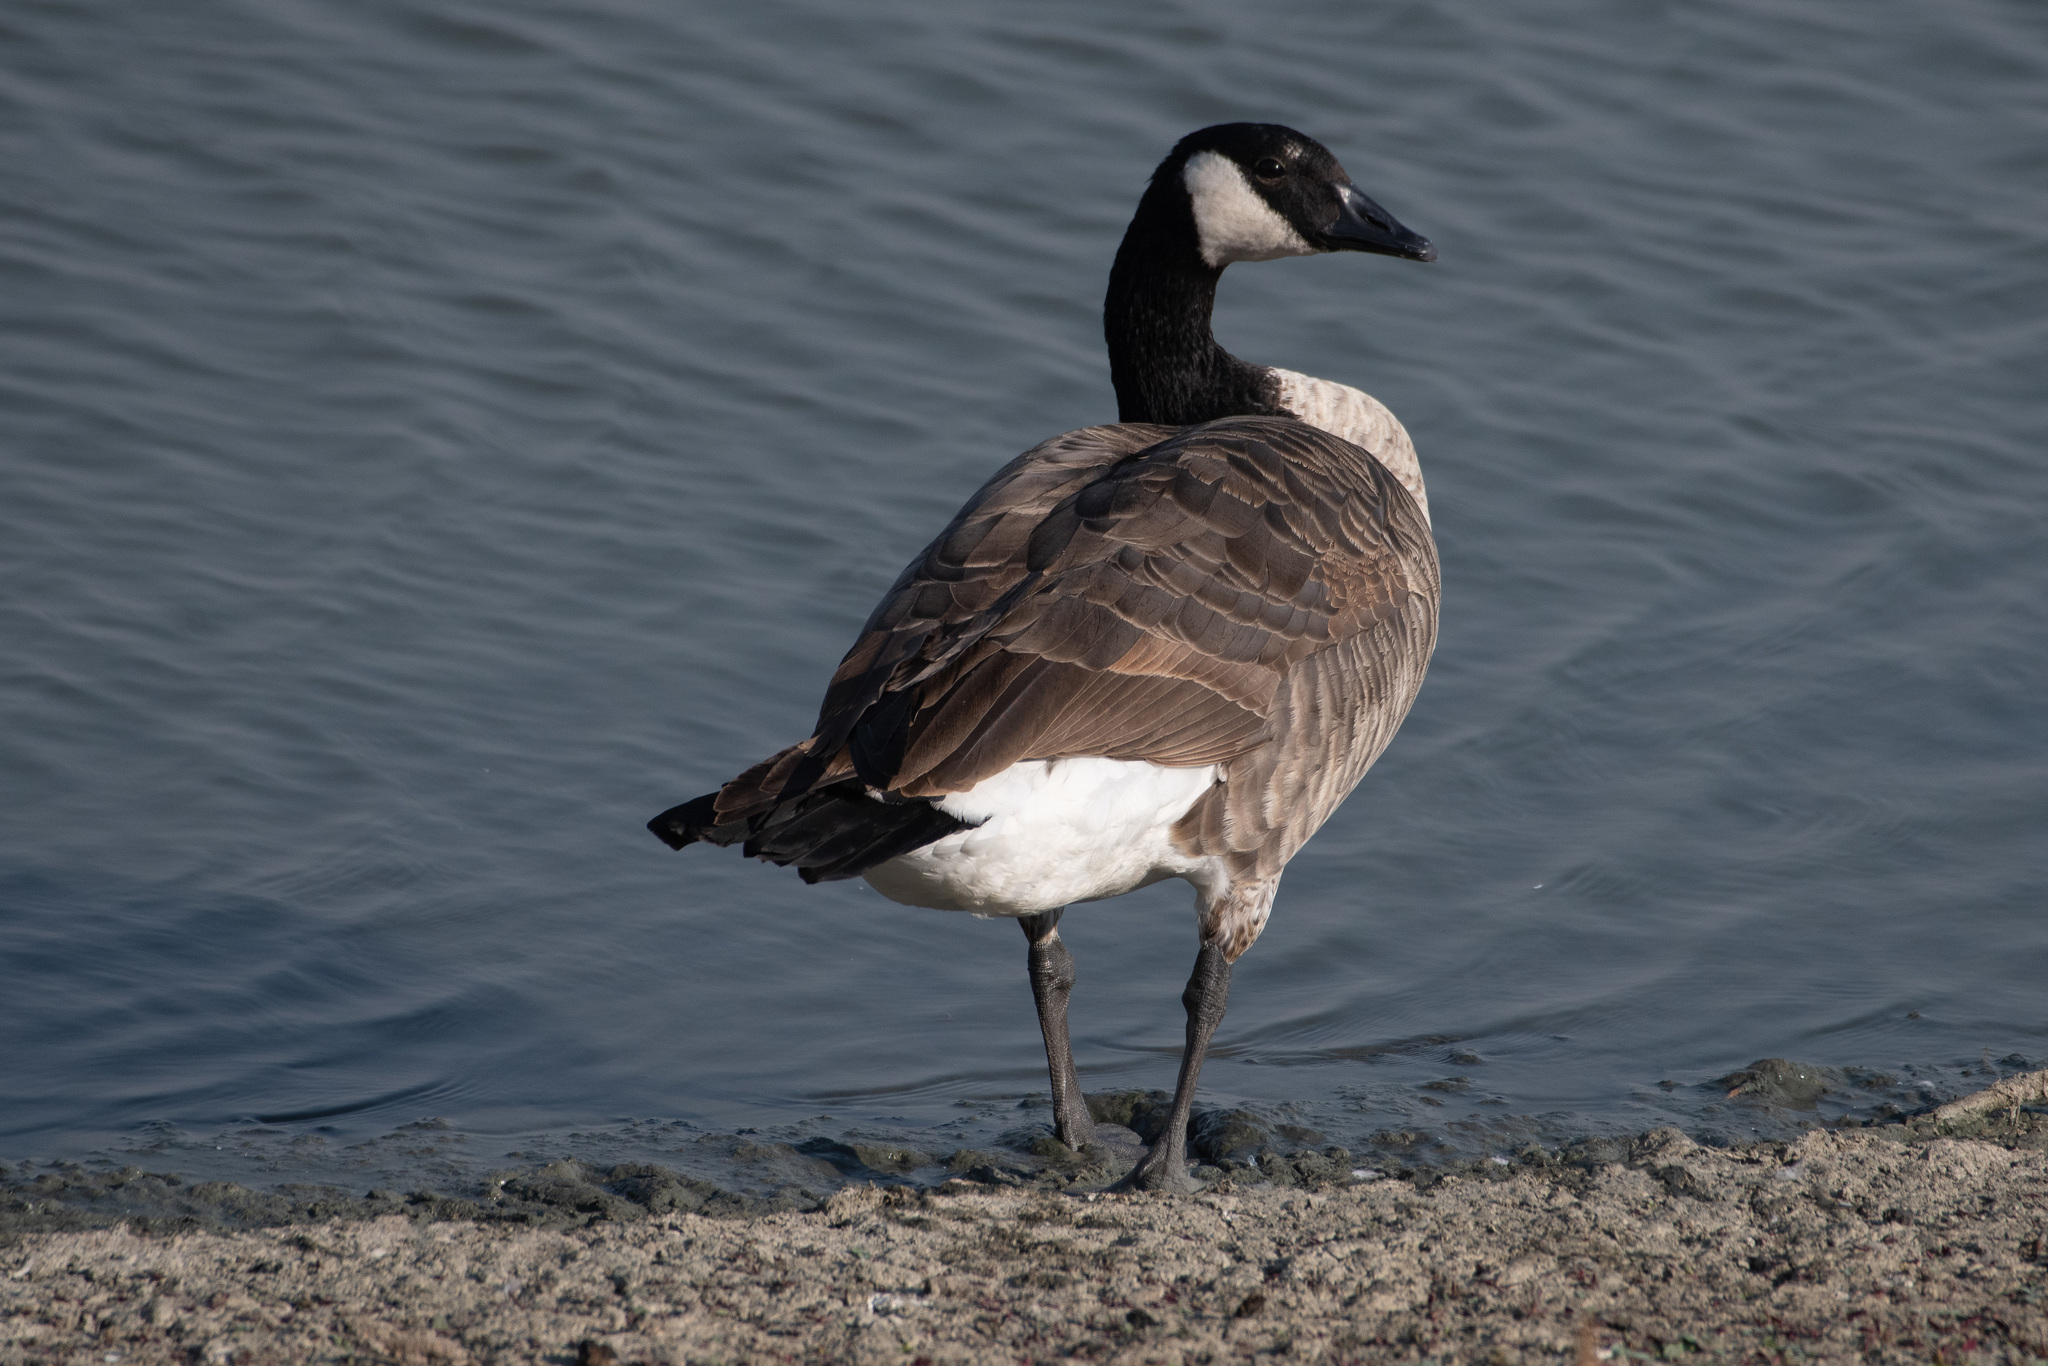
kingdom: Animalia
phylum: Chordata
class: Aves
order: Anseriformes
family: Anatidae
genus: Branta
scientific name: Branta canadensis
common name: Canada goose
